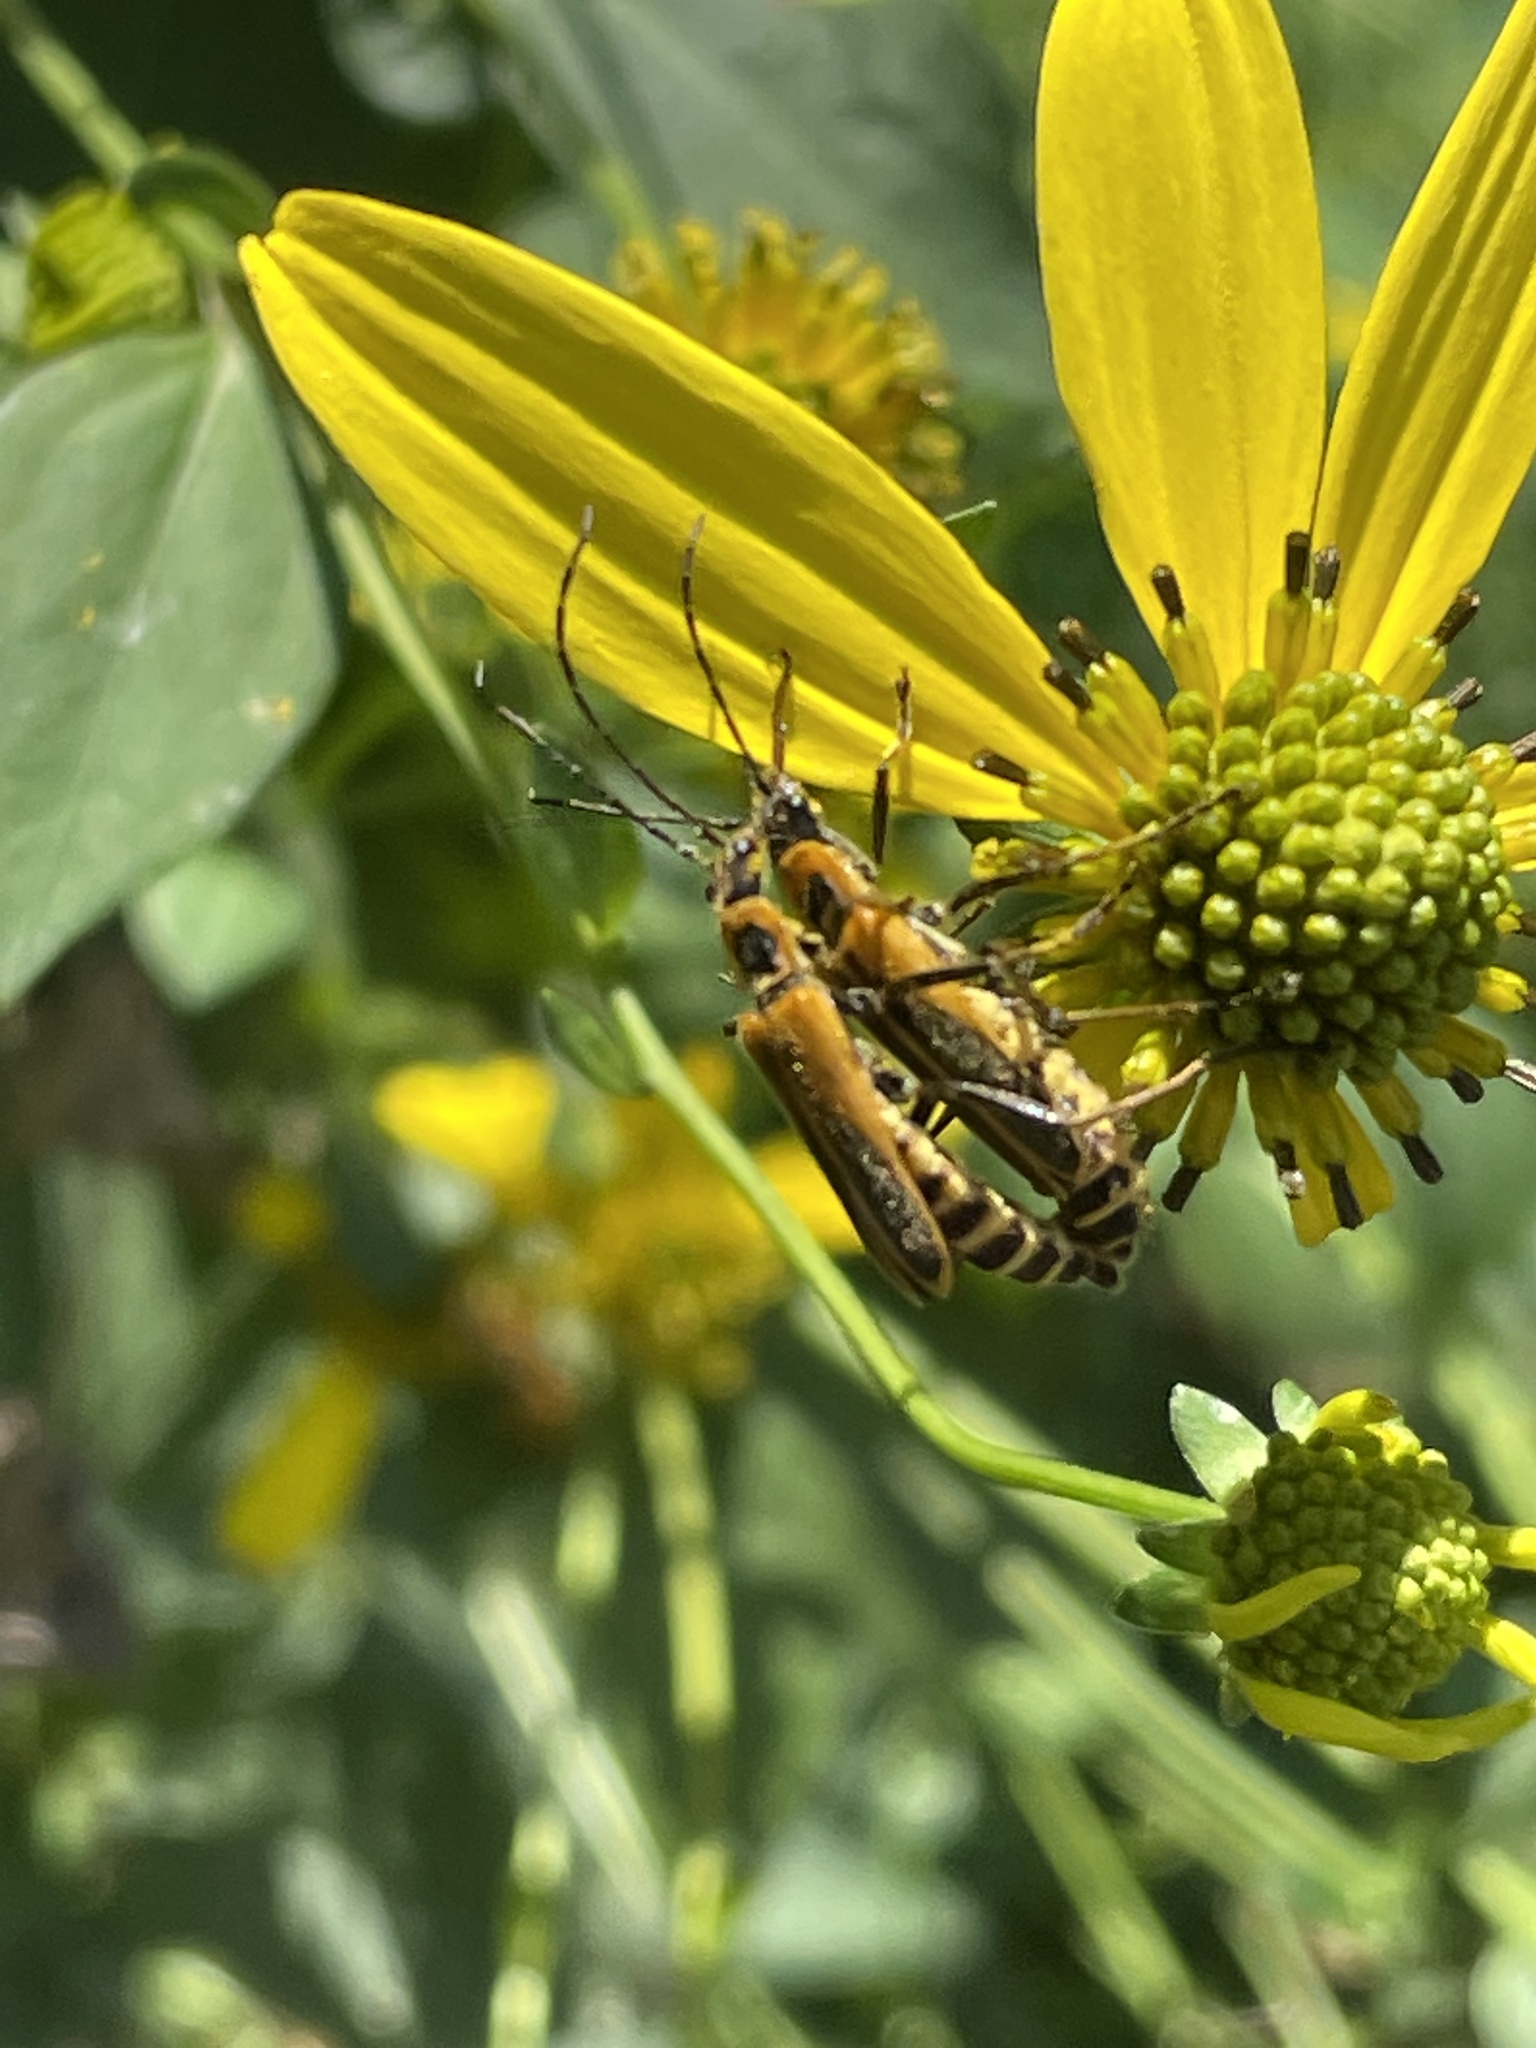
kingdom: Animalia
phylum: Arthropoda
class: Insecta
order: Coleoptera
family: Cantharidae
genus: Chauliognathus
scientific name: Chauliognathus pensylvanicus
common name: Goldenrod soldier beetle
